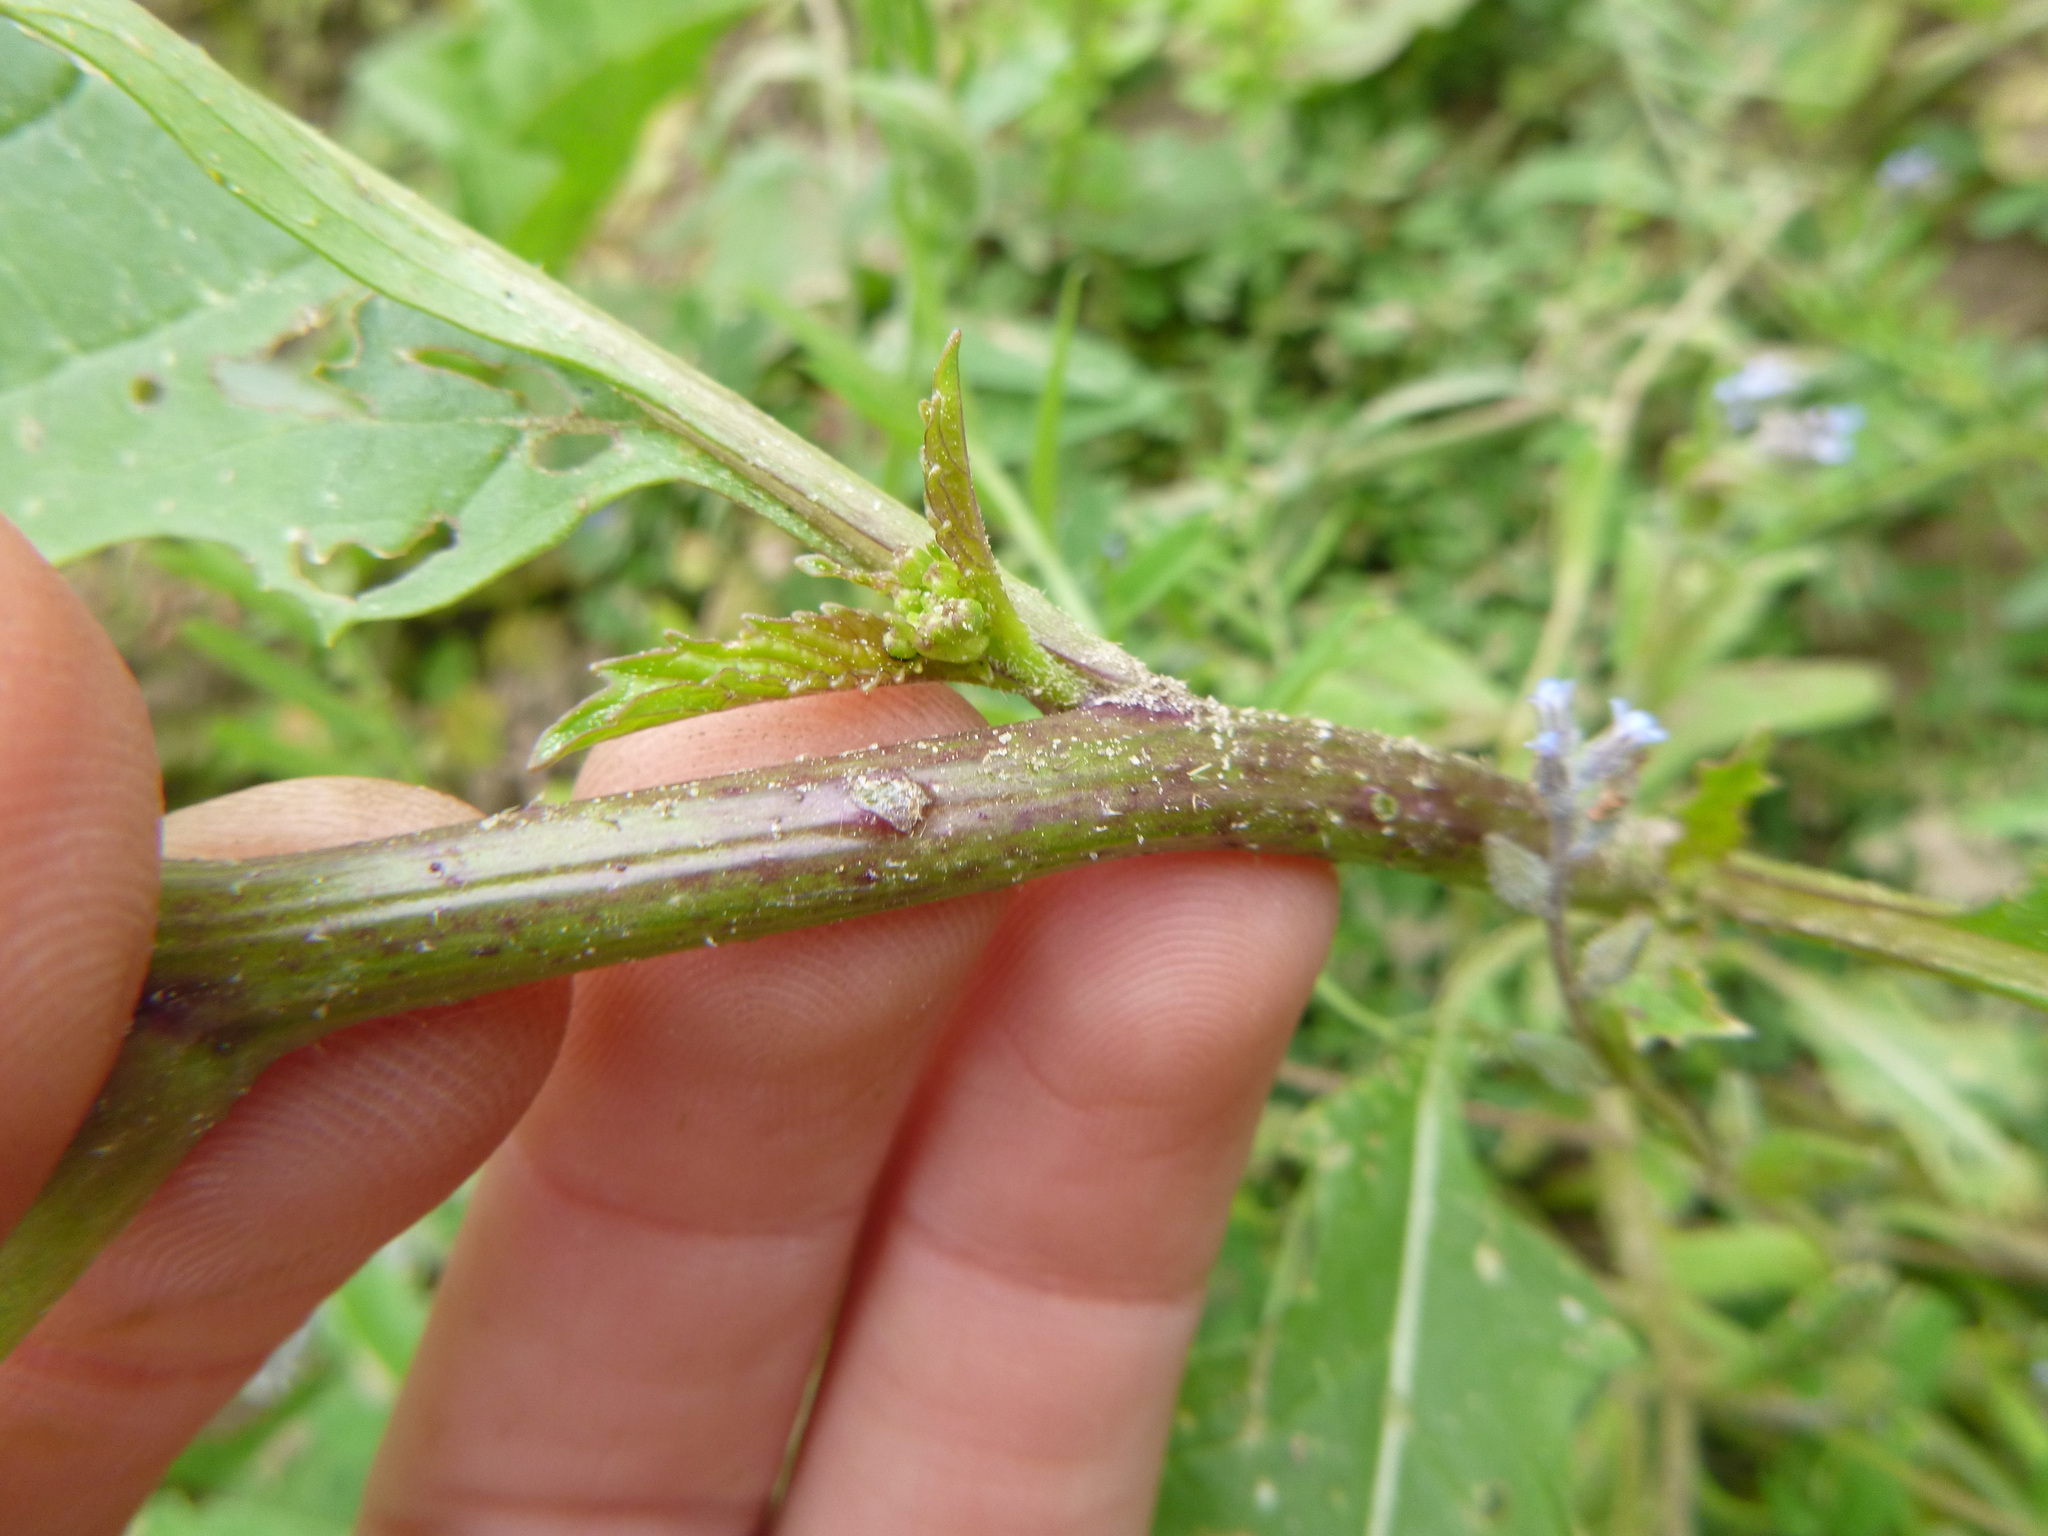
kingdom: Plantae
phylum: Tracheophyta
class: Magnoliopsida
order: Brassicales
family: Brassicaceae
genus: Sinapis
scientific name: Sinapis arvensis
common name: Charlock
